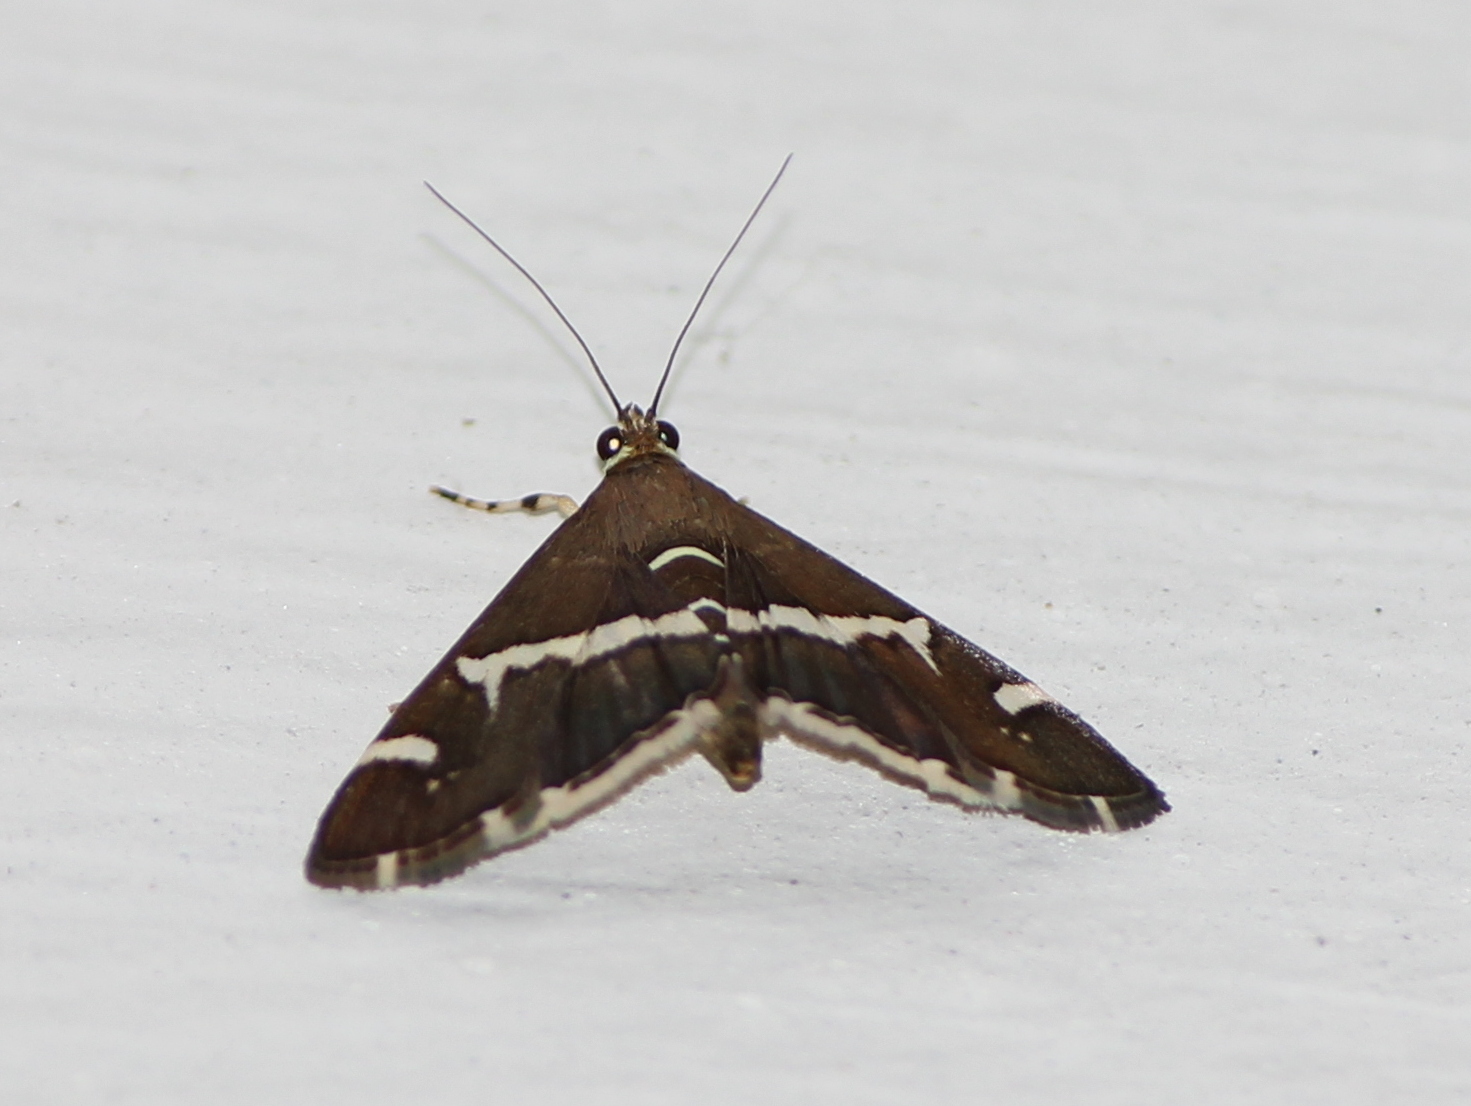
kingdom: Animalia
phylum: Arthropoda
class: Insecta
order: Lepidoptera
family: Crambidae
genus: Spoladea
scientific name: Spoladea recurvalis
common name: Beet webworm moth
